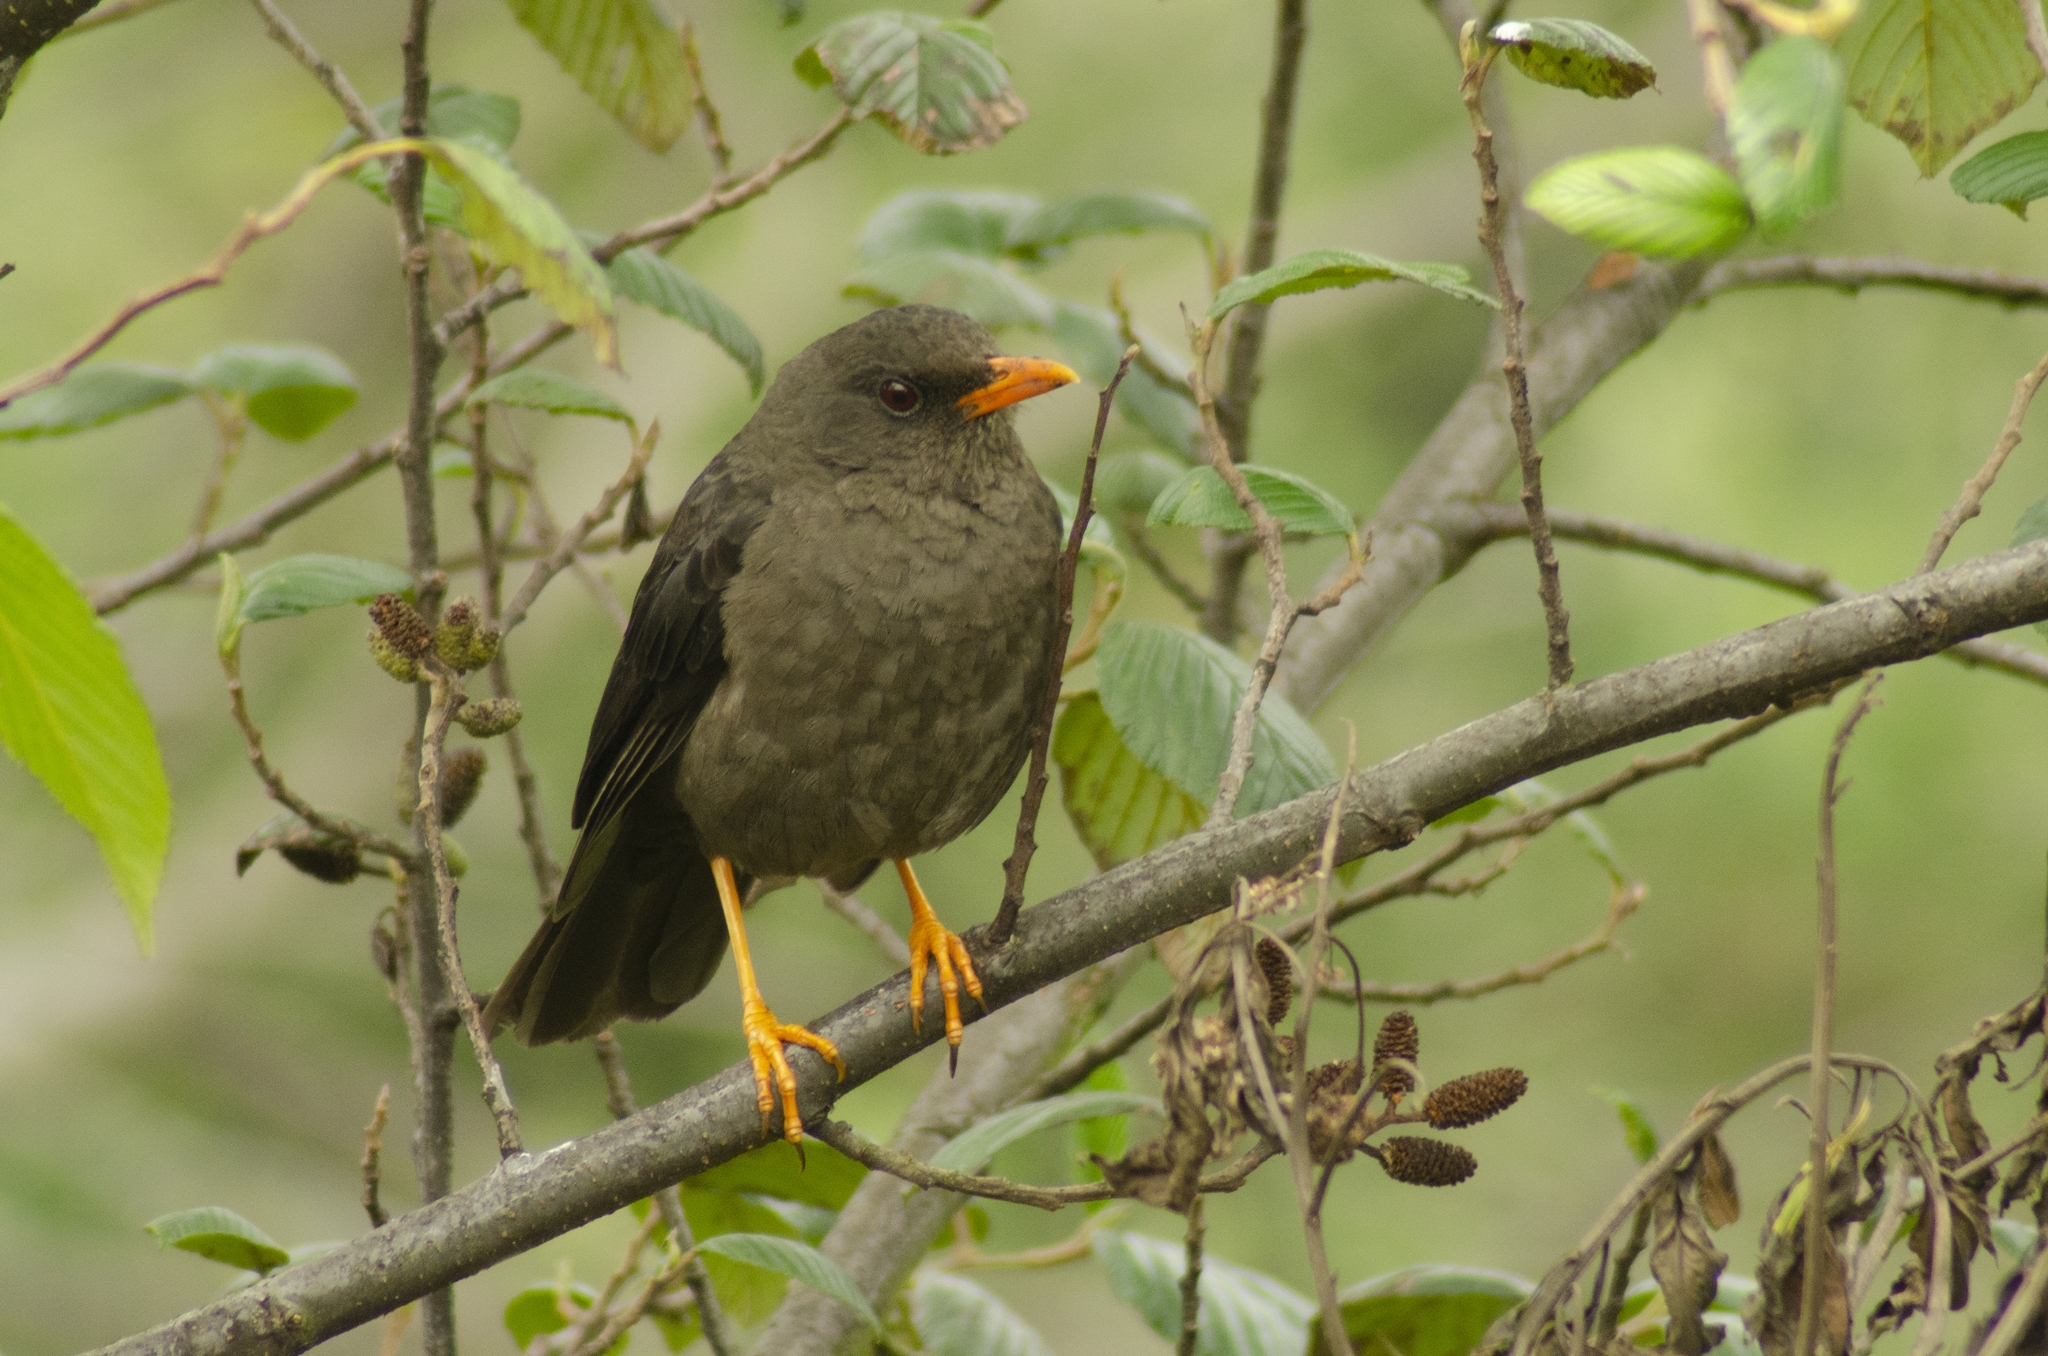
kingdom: Animalia
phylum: Chordata
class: Aves
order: Passeriformes
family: Turdidae
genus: Turdus
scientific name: Turdus fuscater
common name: Great thrush
